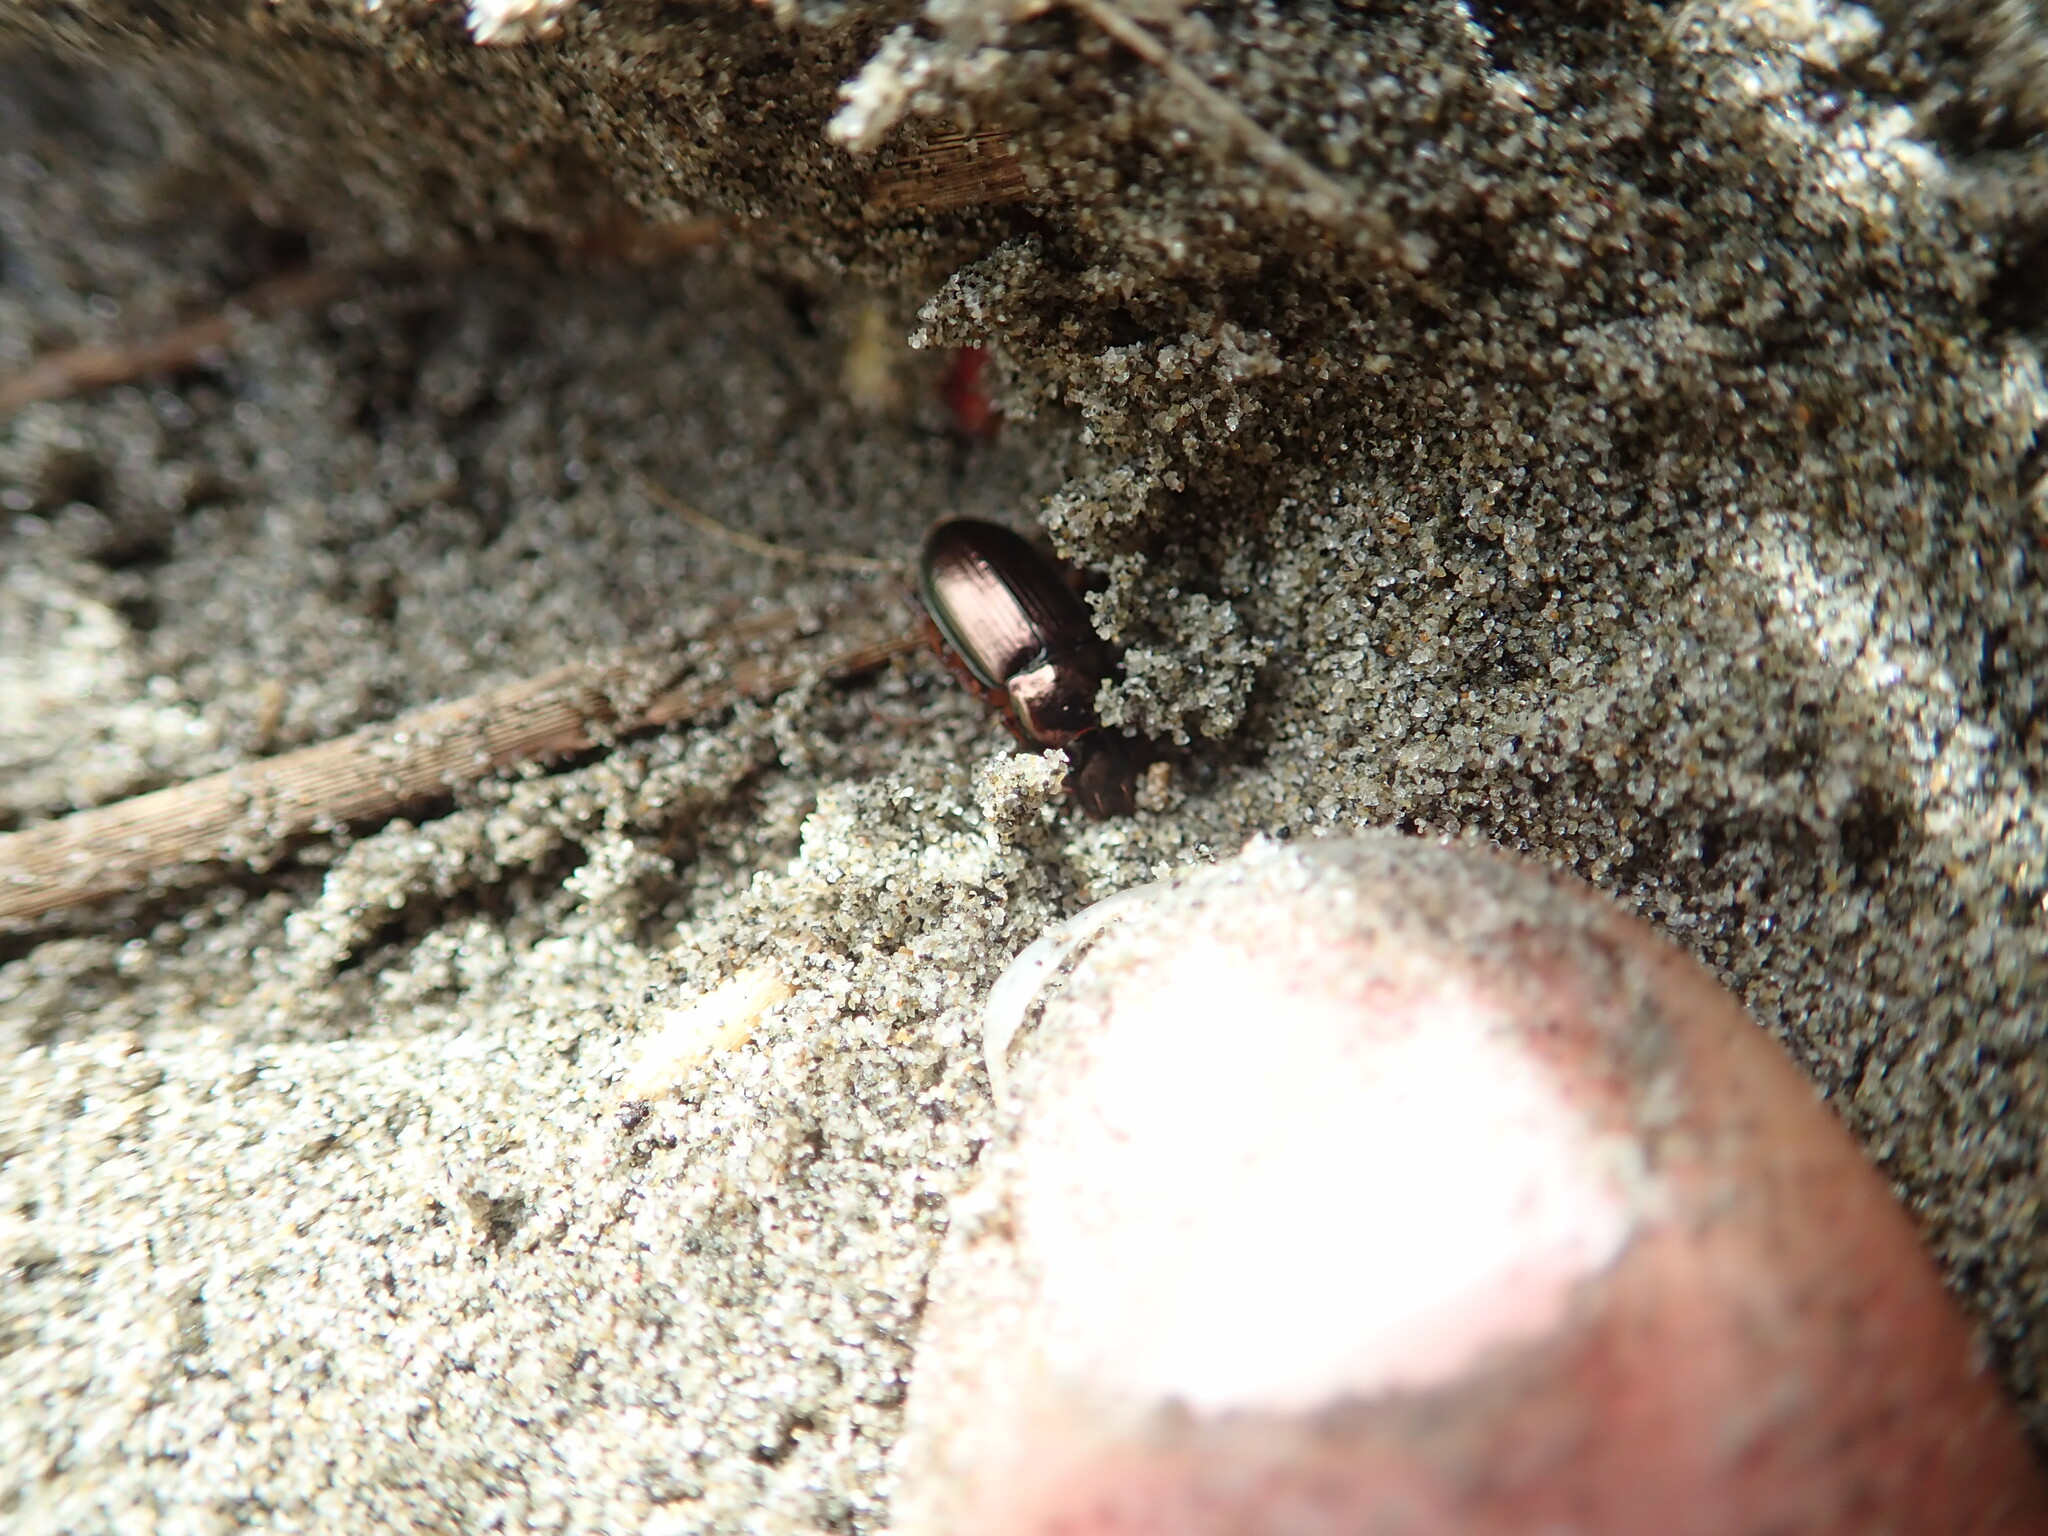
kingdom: Animalia
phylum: Arthropoda
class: Insecta
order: Coleoptera
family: Carabidae
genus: Harpalus
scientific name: Harpalus affinis
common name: Polychrome harp ground beetle
